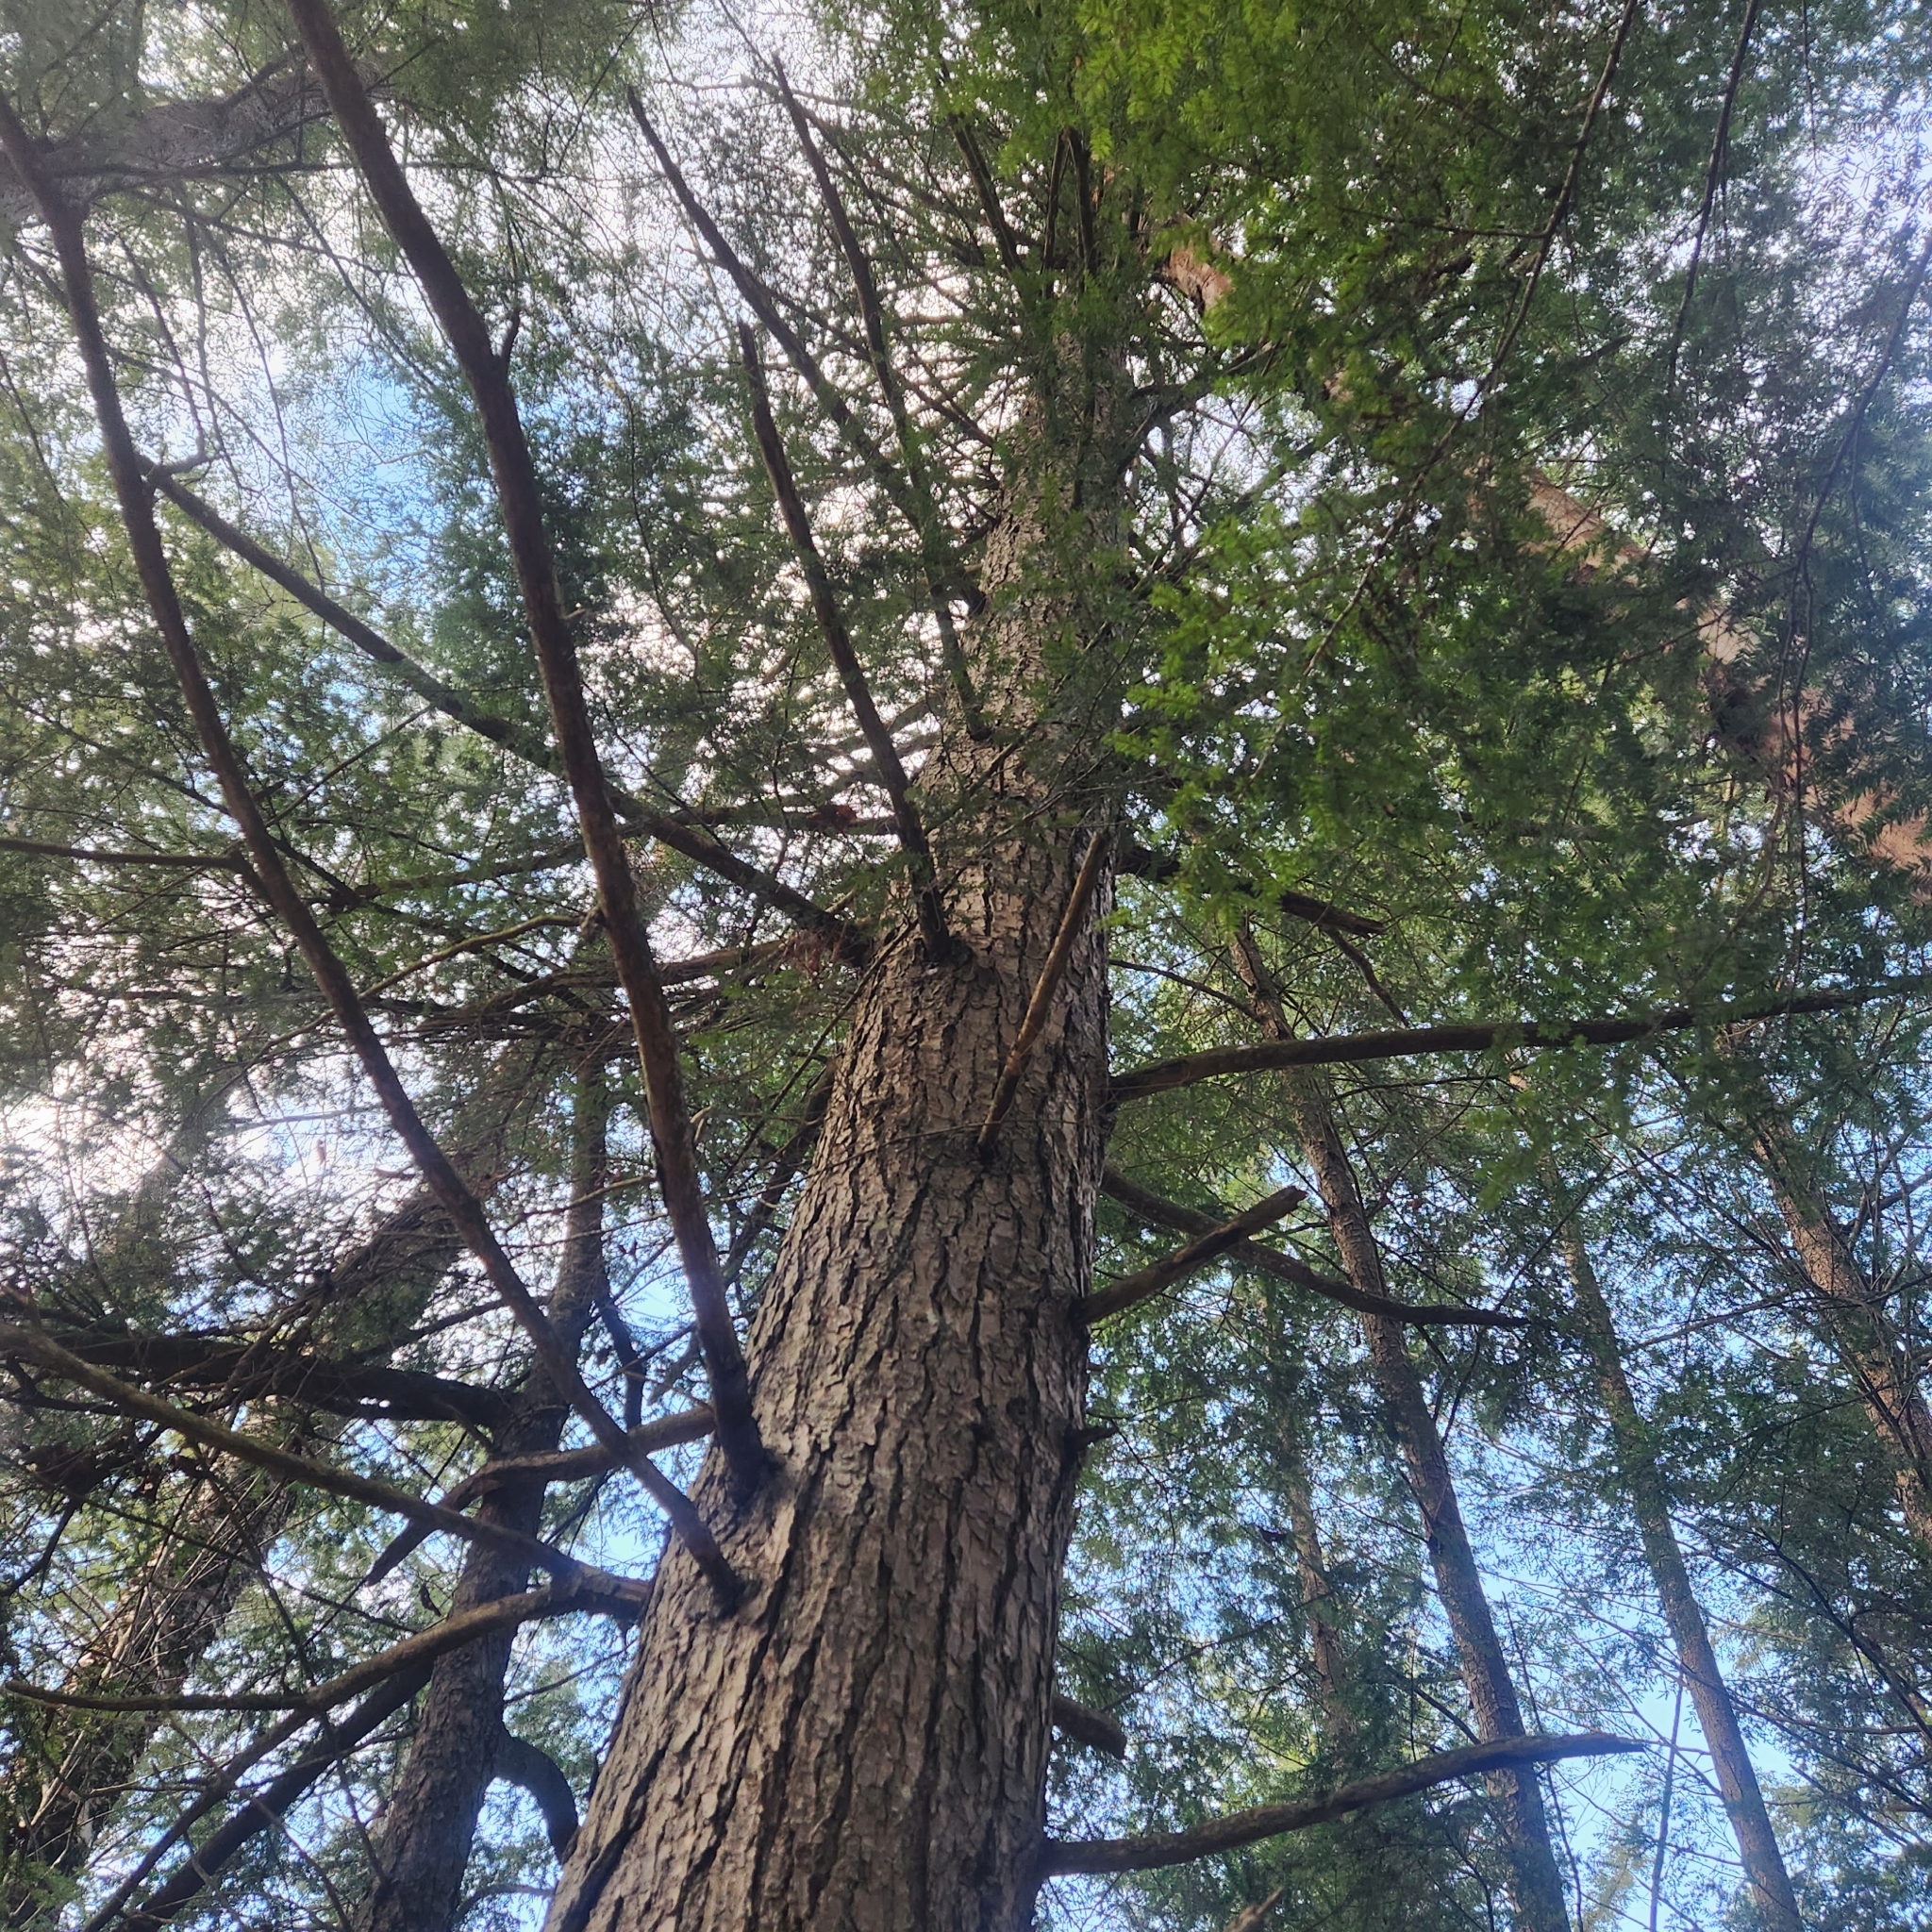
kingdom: Plantae
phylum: Tracheophyta
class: Pinopsida
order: Pinales
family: Pinaceae
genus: Tsuga
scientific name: Tsuga canadensis
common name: Eastern hemlock
